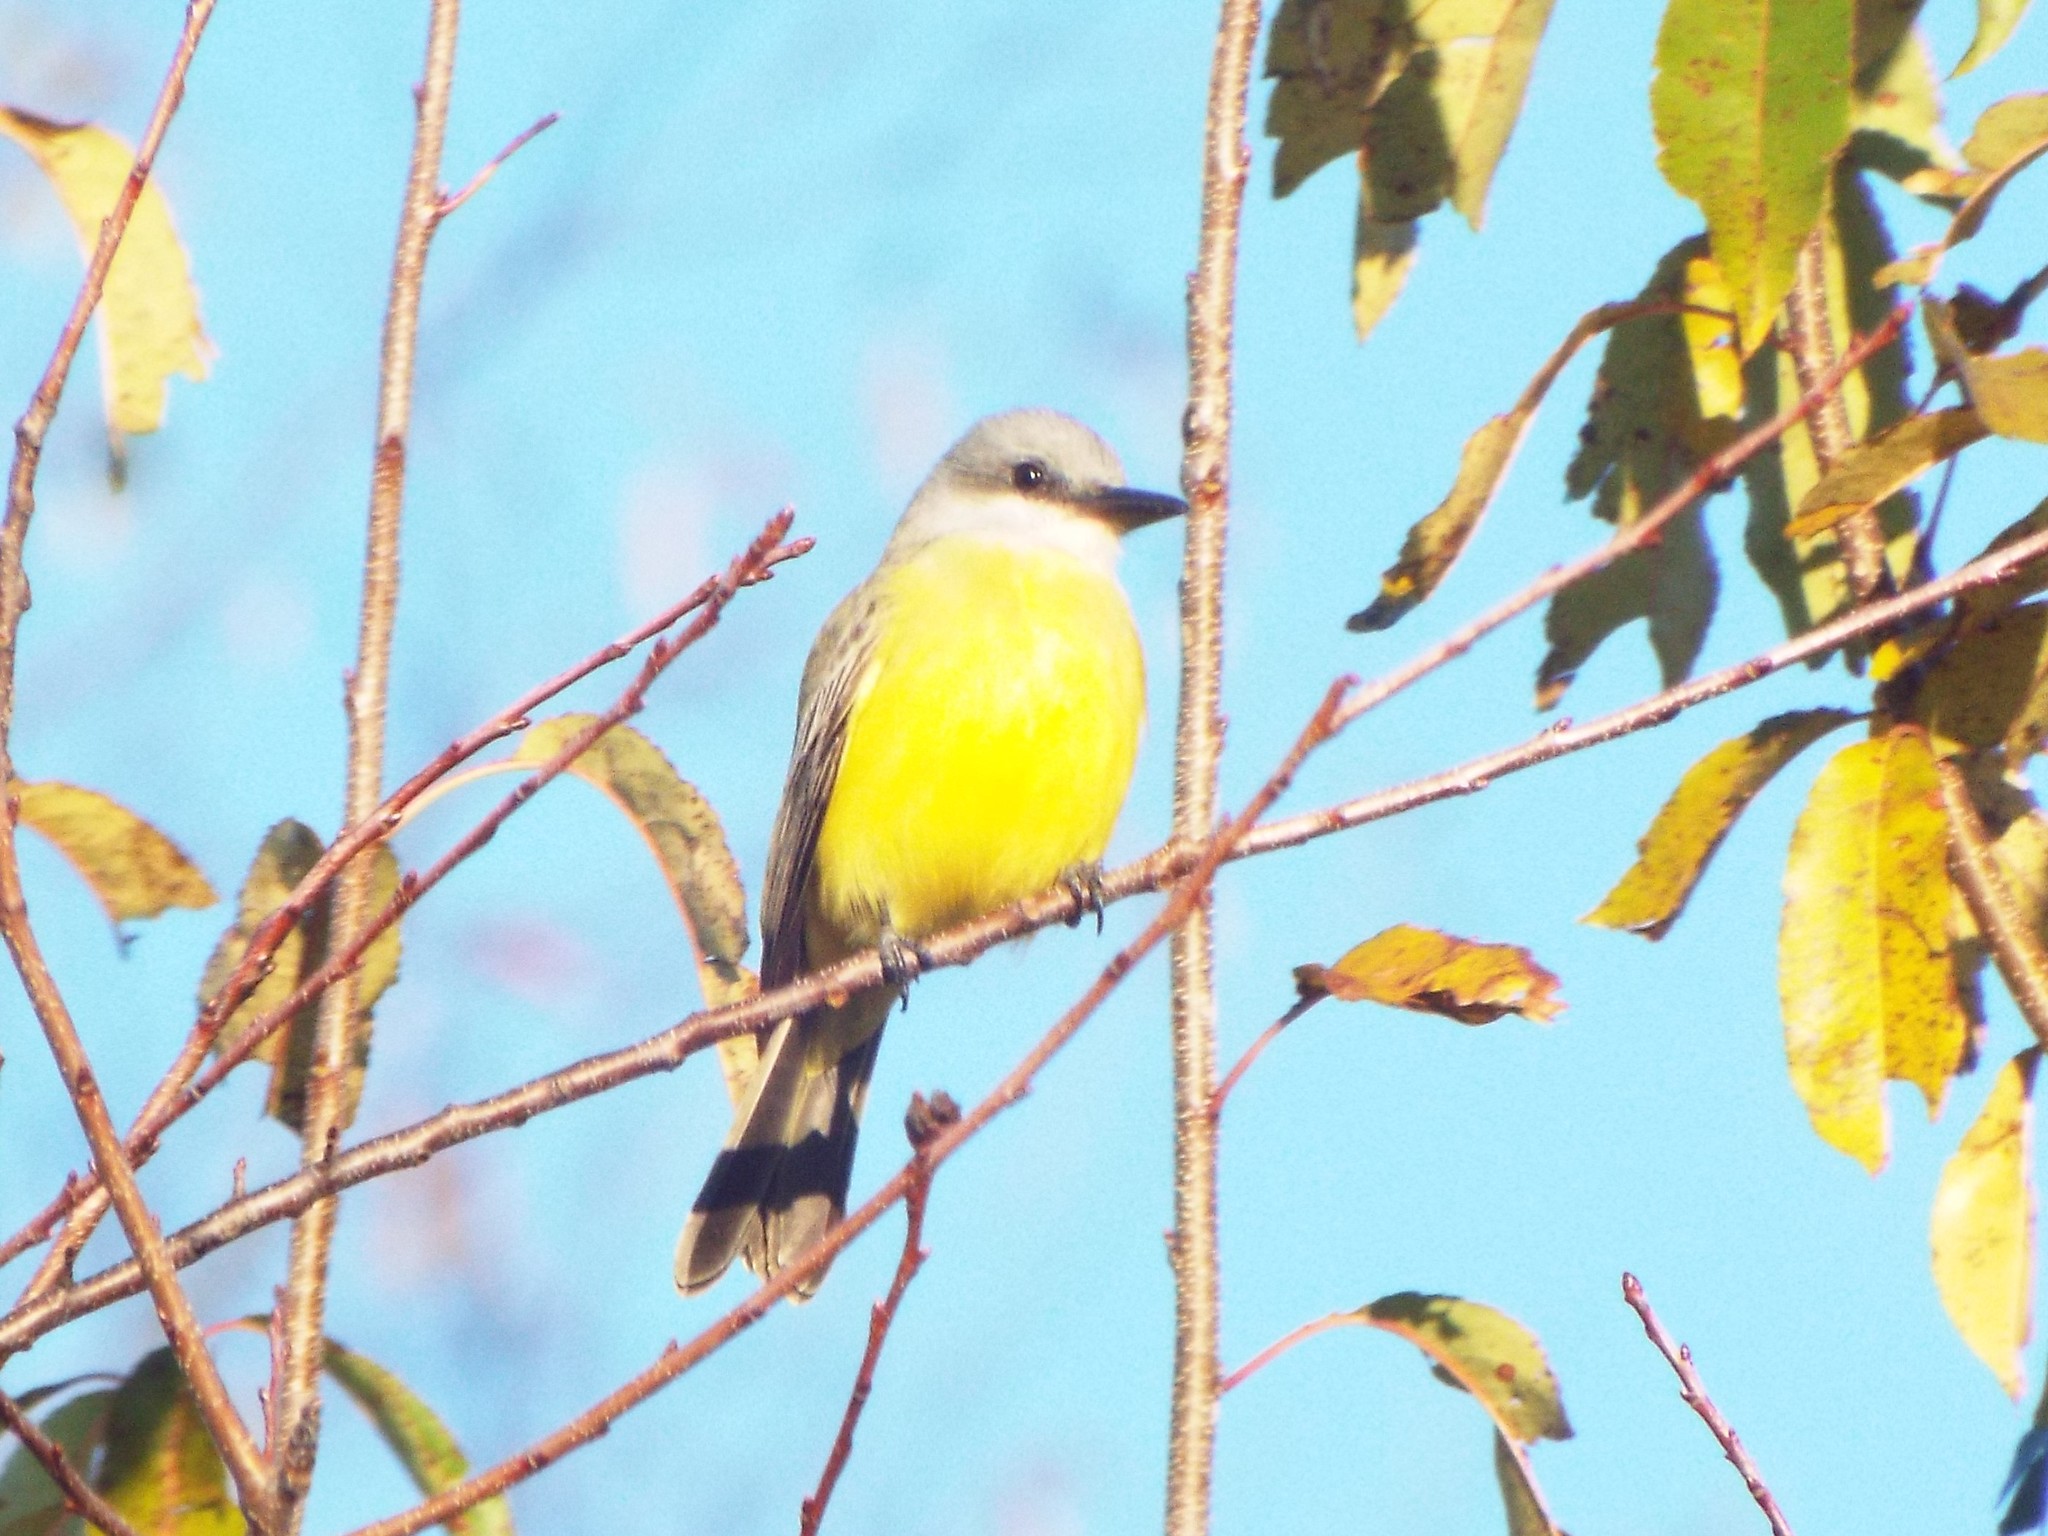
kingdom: Animalia
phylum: Chordata
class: Aves
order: Passeriformes
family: Tyrannidae
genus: Tyrannus
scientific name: Tyrannus melancholicus
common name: Tropical kingbird
